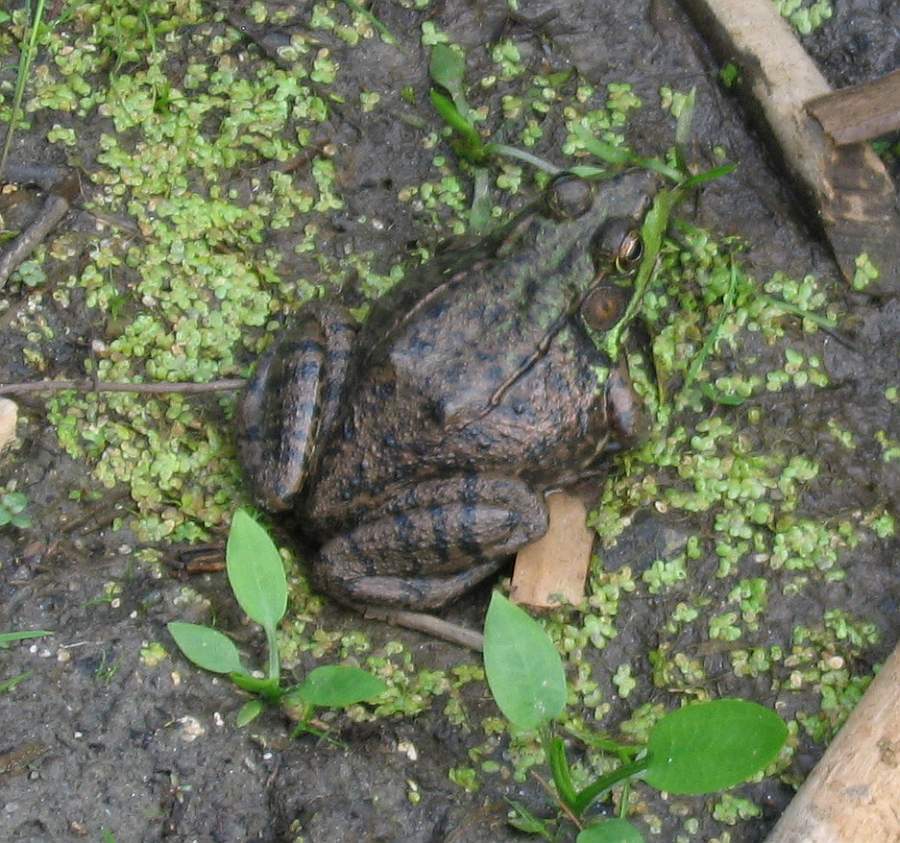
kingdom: Animalia
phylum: Chordata
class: Amphibia
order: Anura
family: Ranidae
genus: Lithobates
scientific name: Lithobates clamitans
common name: Green frog
